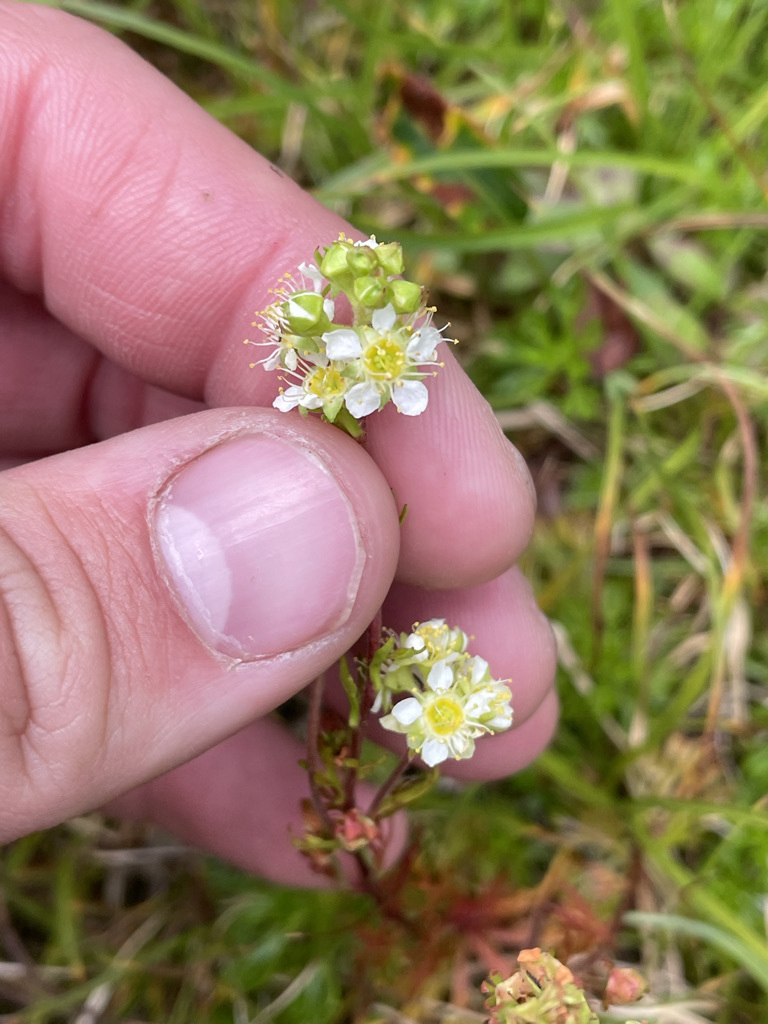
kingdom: Plantae
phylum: Tracheophyta
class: Magnoliopsida
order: Rosales
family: Rosaceae
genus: Luetkea
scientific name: Luetkea pectinata
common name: Partridgefoot
